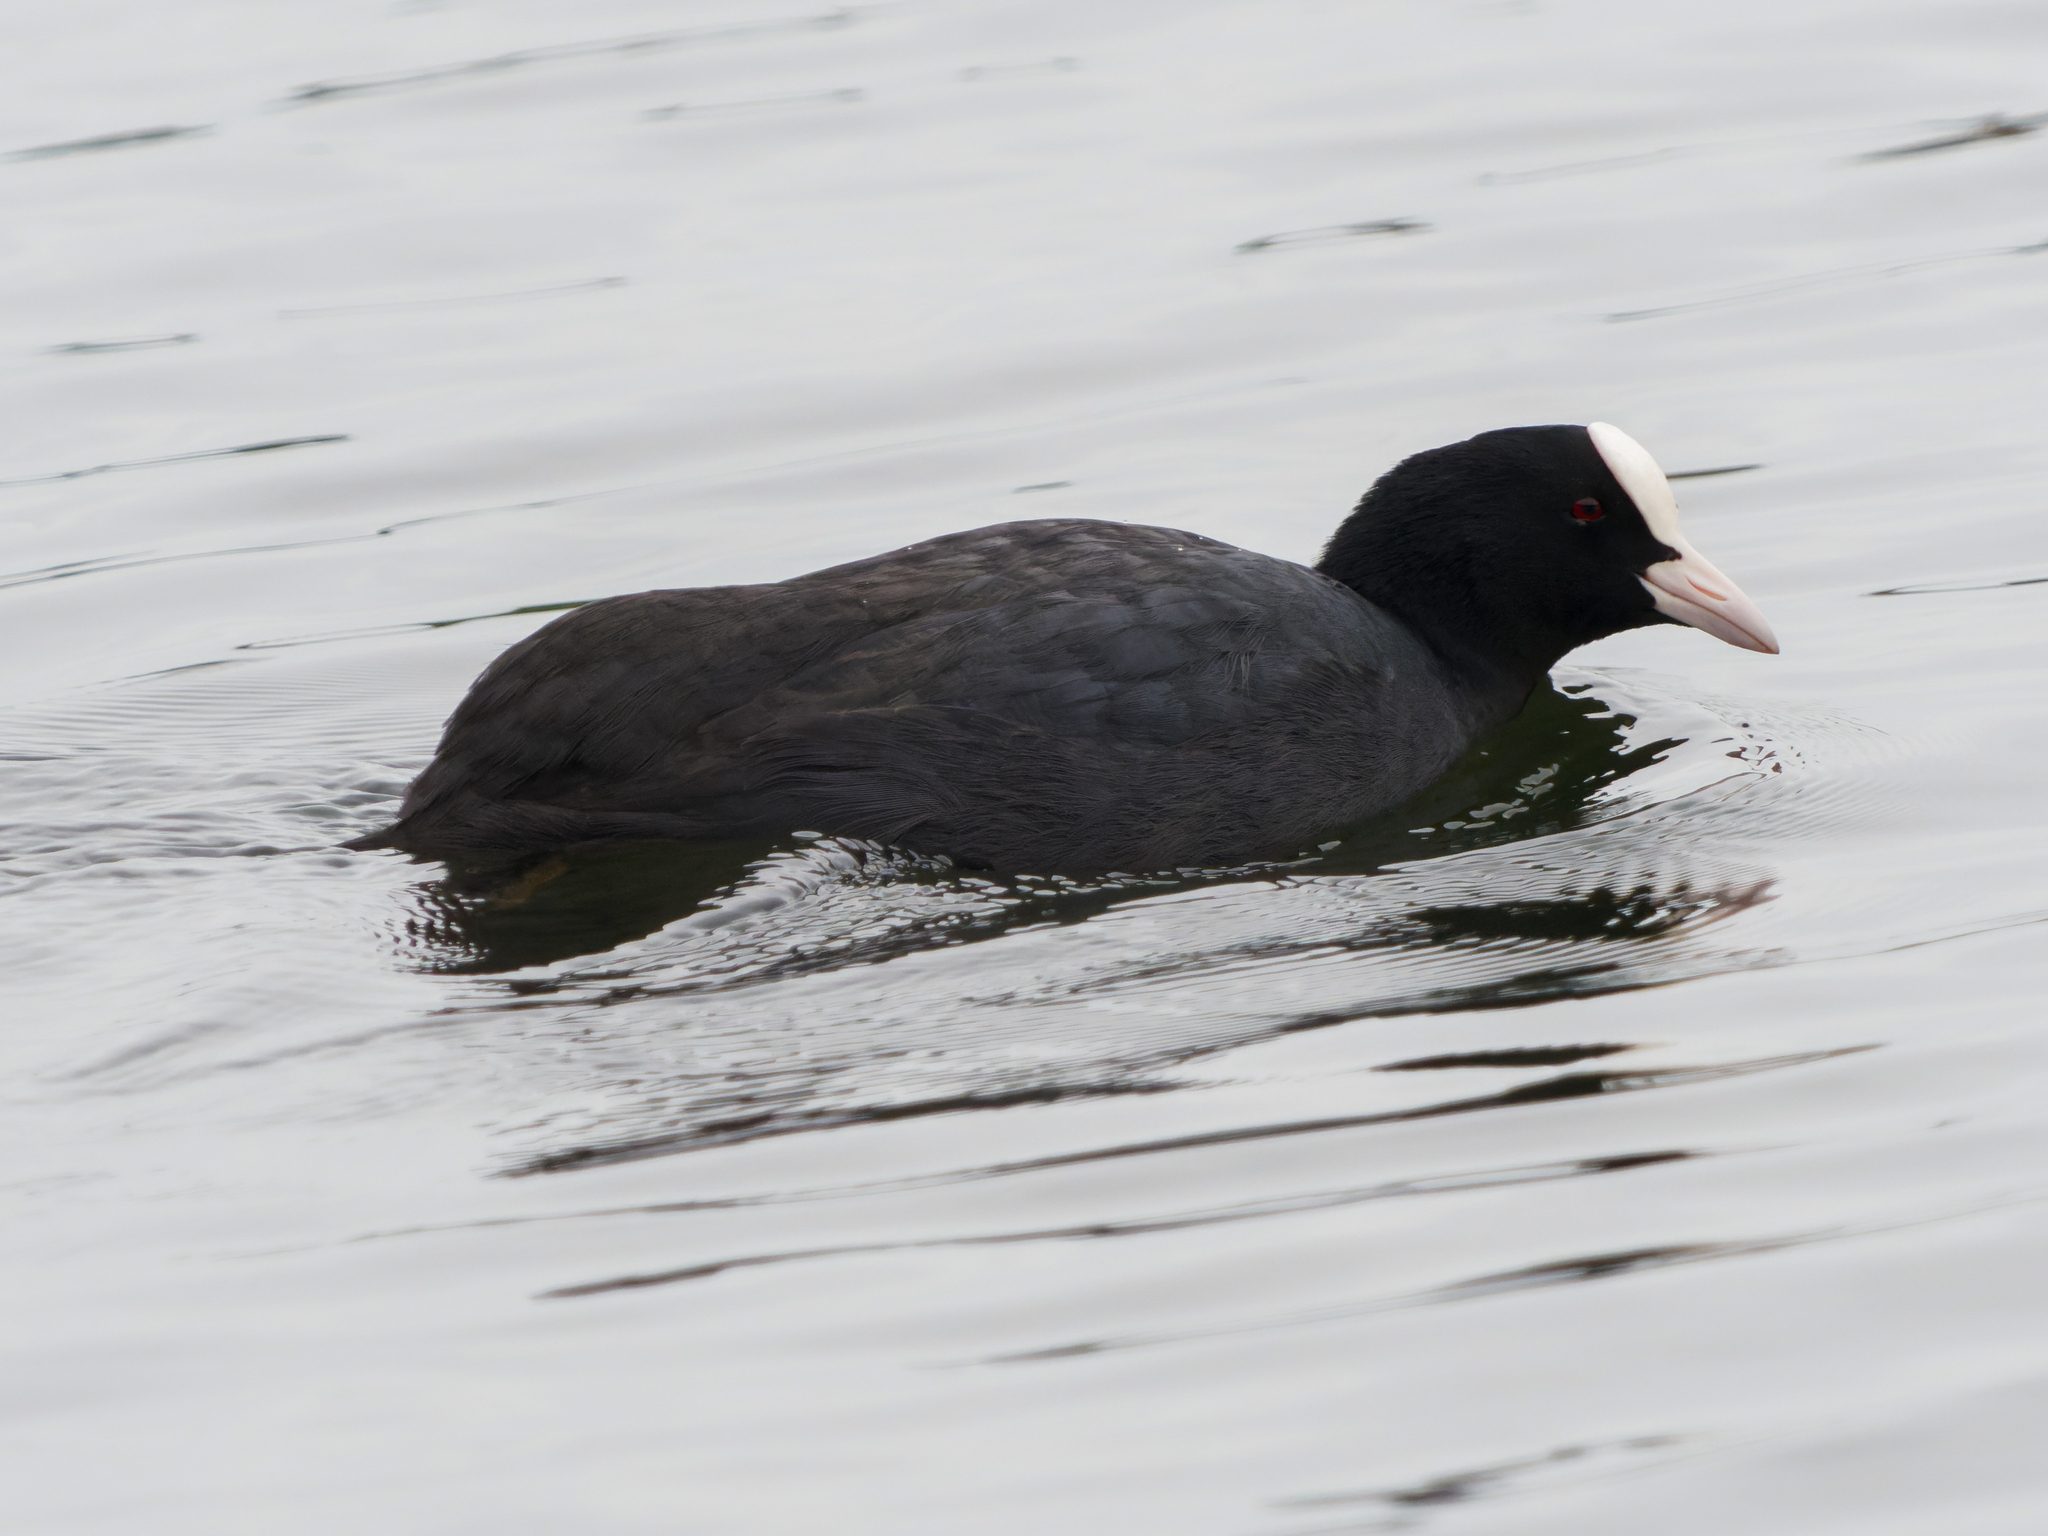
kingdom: Animalia
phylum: Chordata
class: Aves
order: Gruiformes
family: Rallidae
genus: Fulica
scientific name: Fulica atra
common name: Eurasian coot
